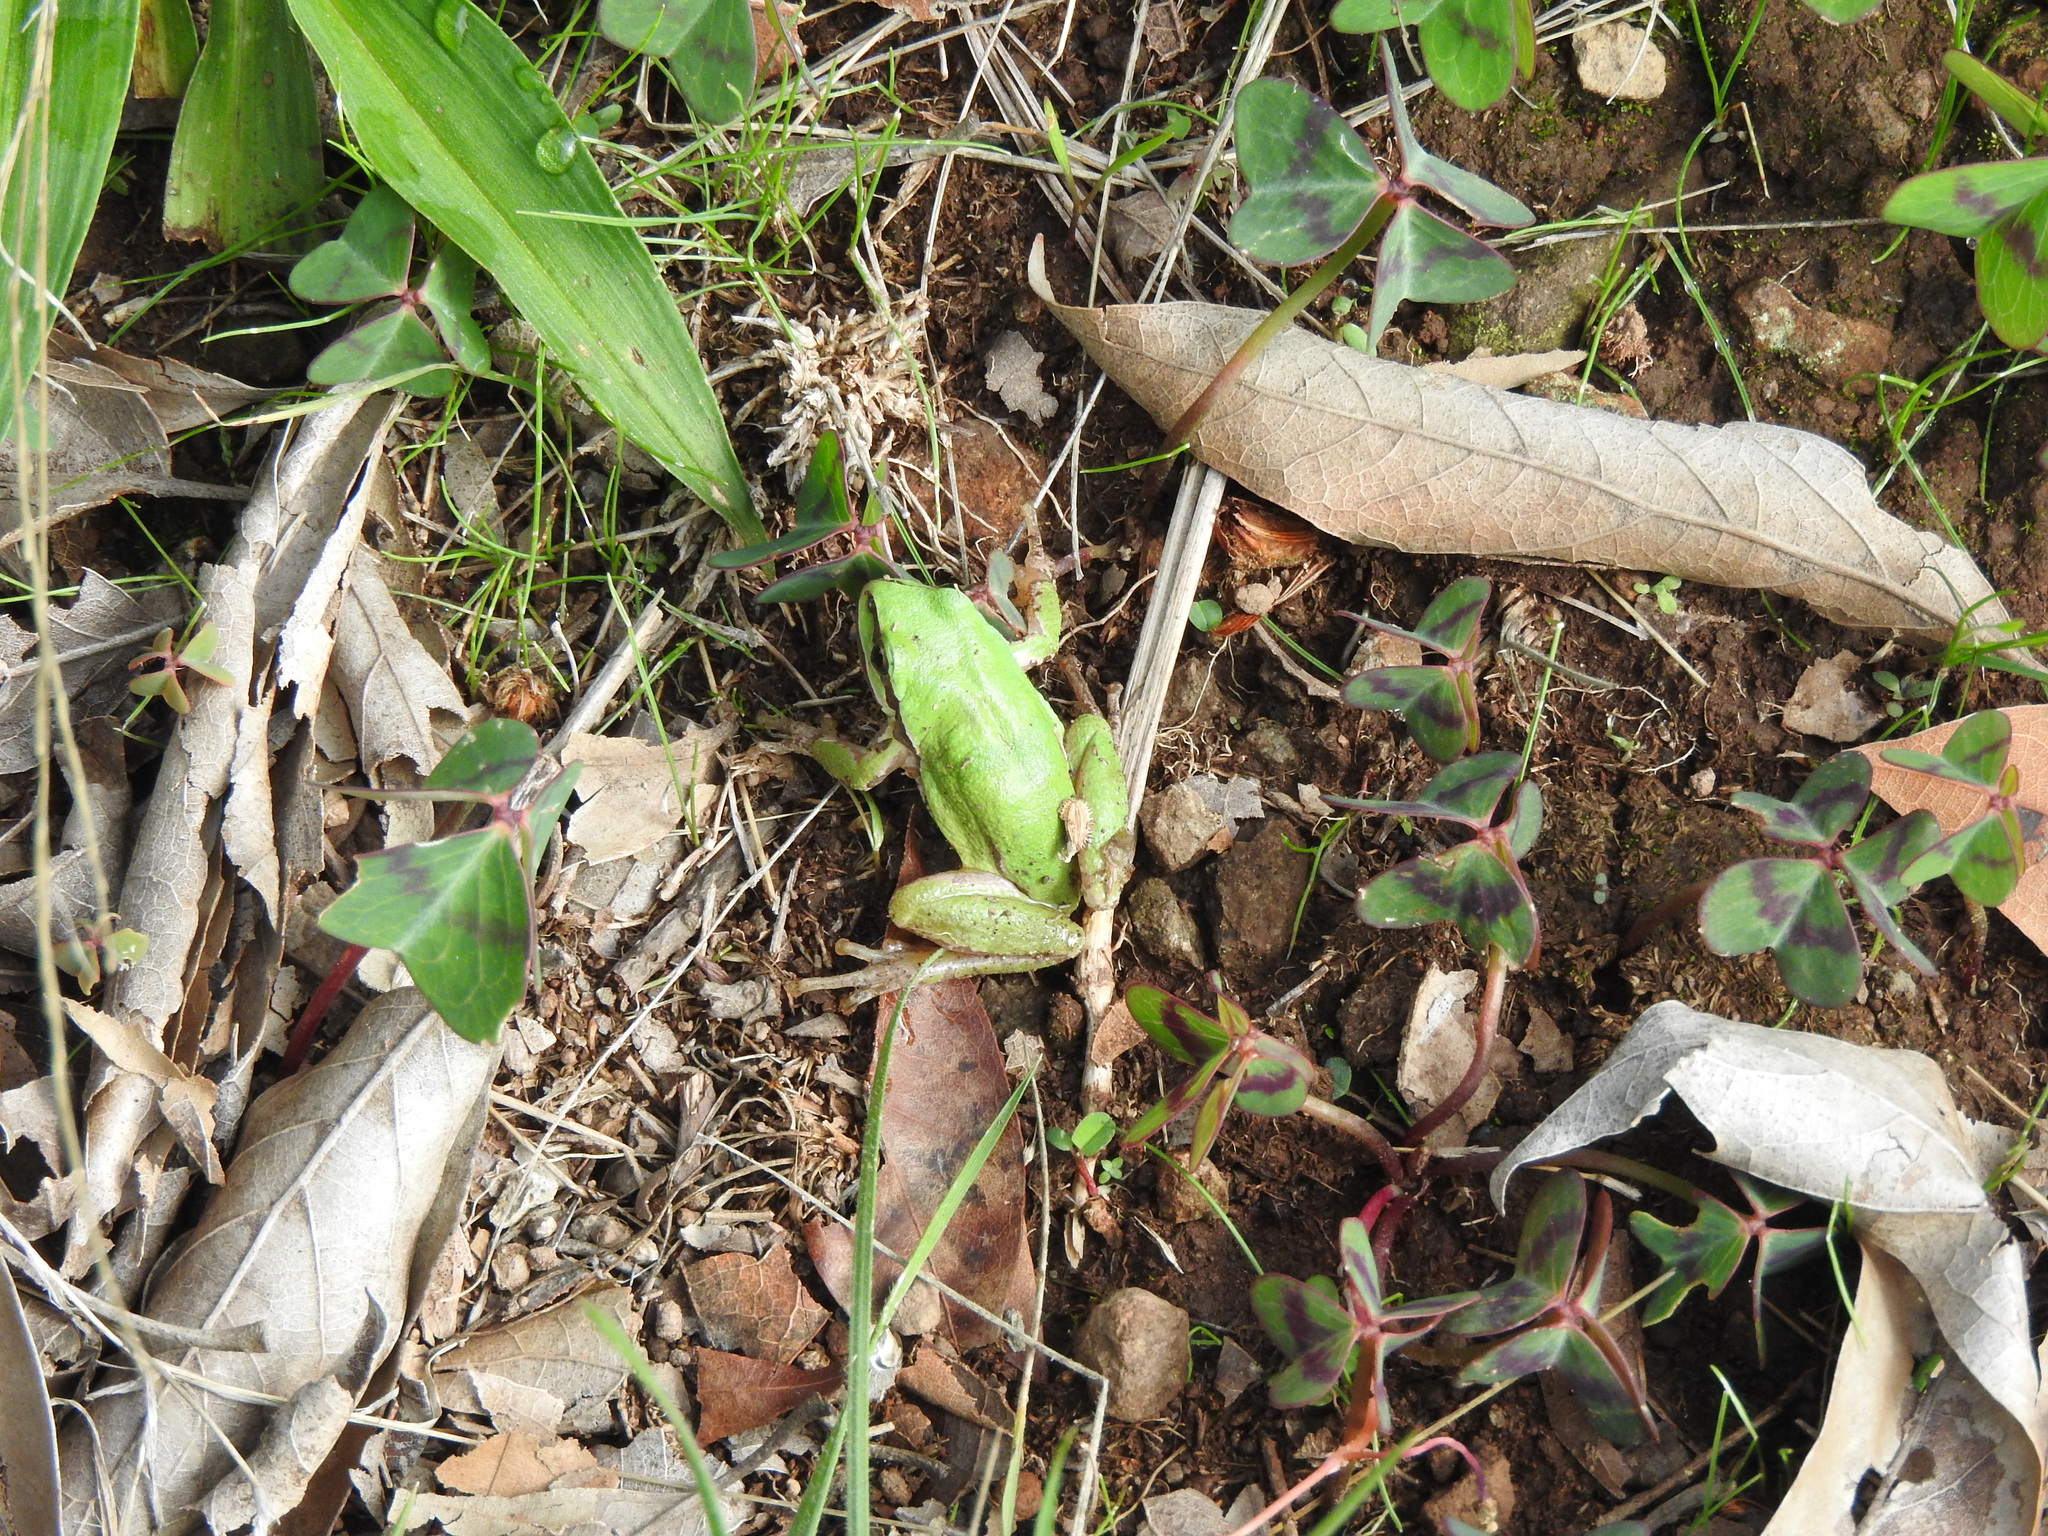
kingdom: Animalia
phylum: Chordata
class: Amphibia
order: Anura
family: Hylidae
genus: Dryophytes
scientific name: Dryophytes eximius
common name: Mountain treefrog
